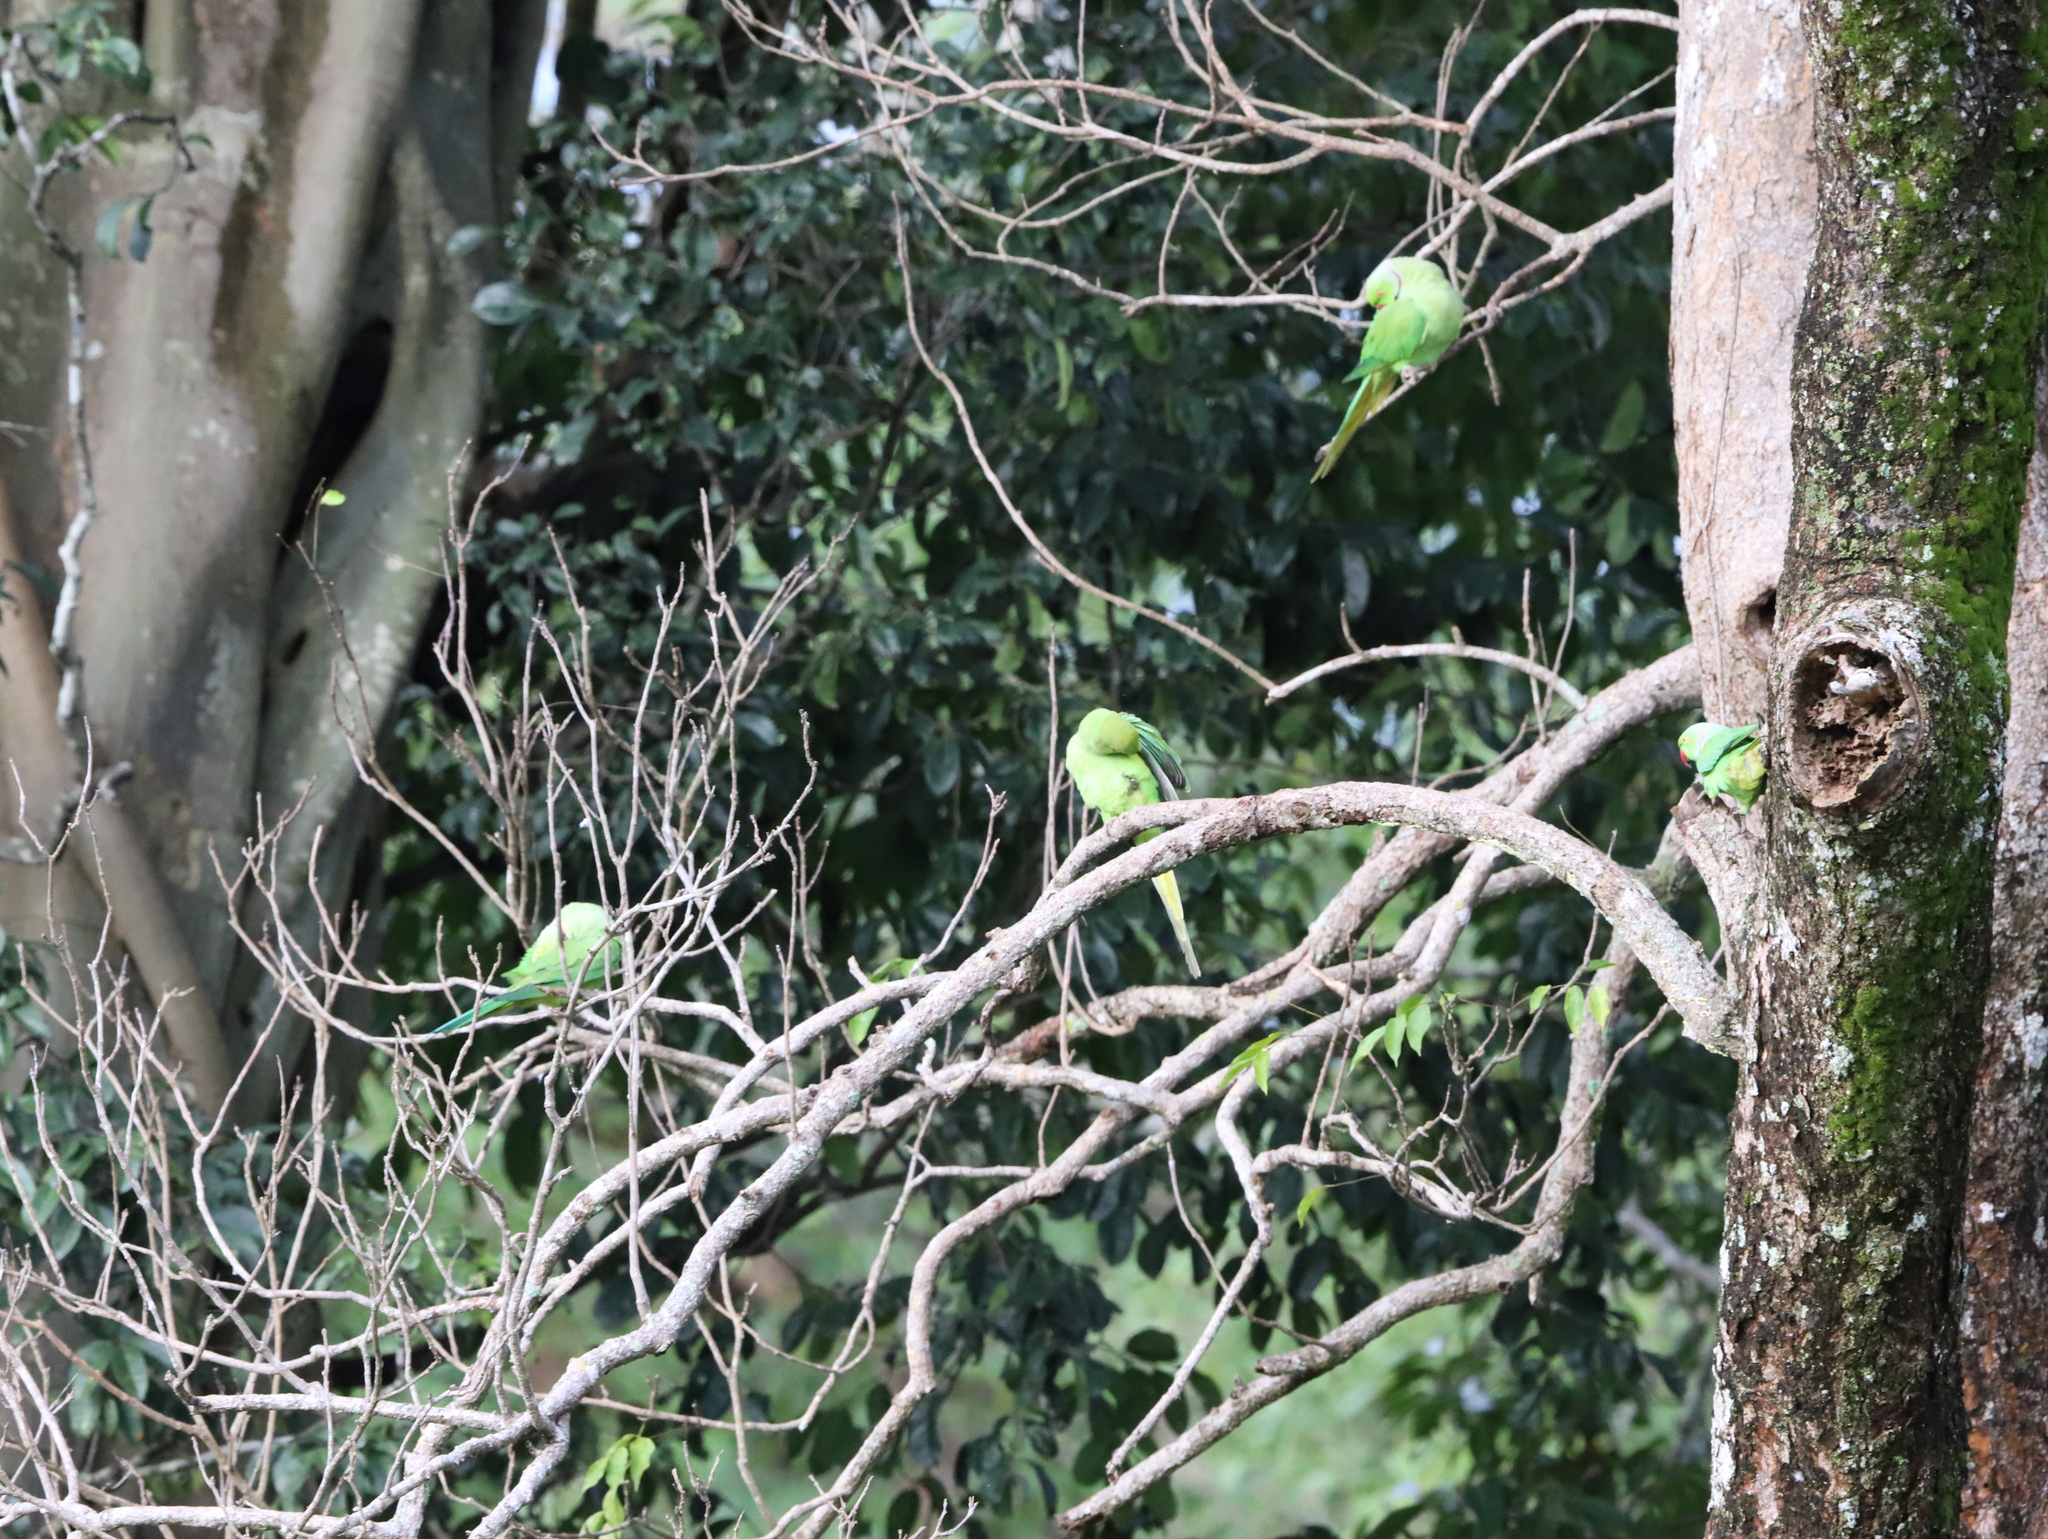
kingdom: Animalia
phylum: Chordata
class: Aves
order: Psittaciformes
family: Psittacidae
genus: Psittacula
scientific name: Psittacula krameri
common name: Rose-ringed parakeet
